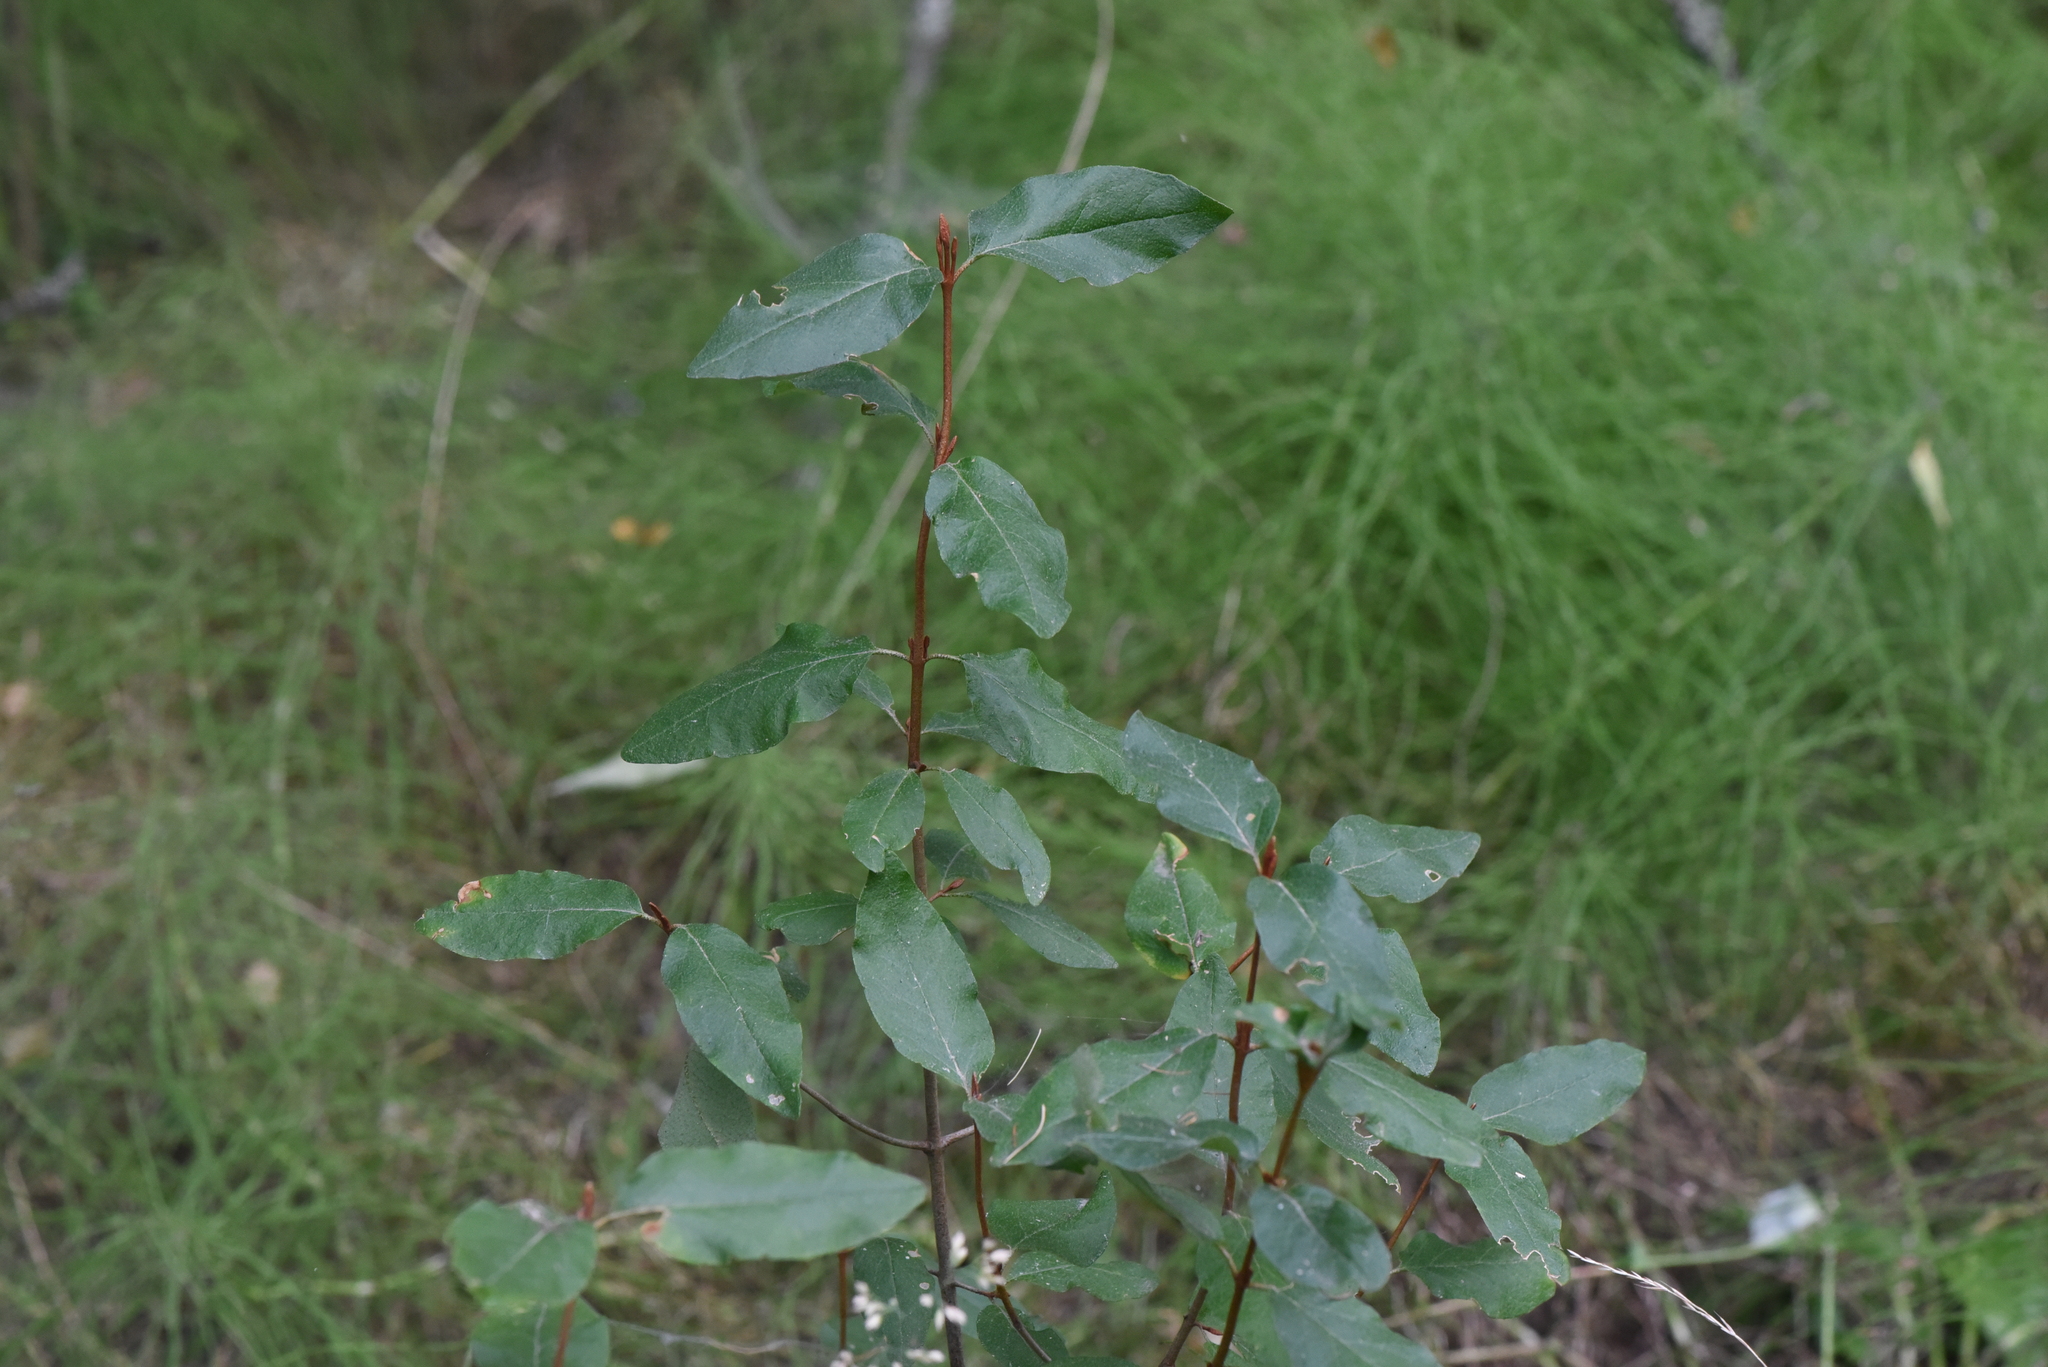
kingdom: Plantae
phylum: Tracheophyta
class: Magnoliopsida
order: Rosales
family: Elaeagnaceae
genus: Shepherdia
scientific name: Shepherdia canadensis
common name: Soapberry
